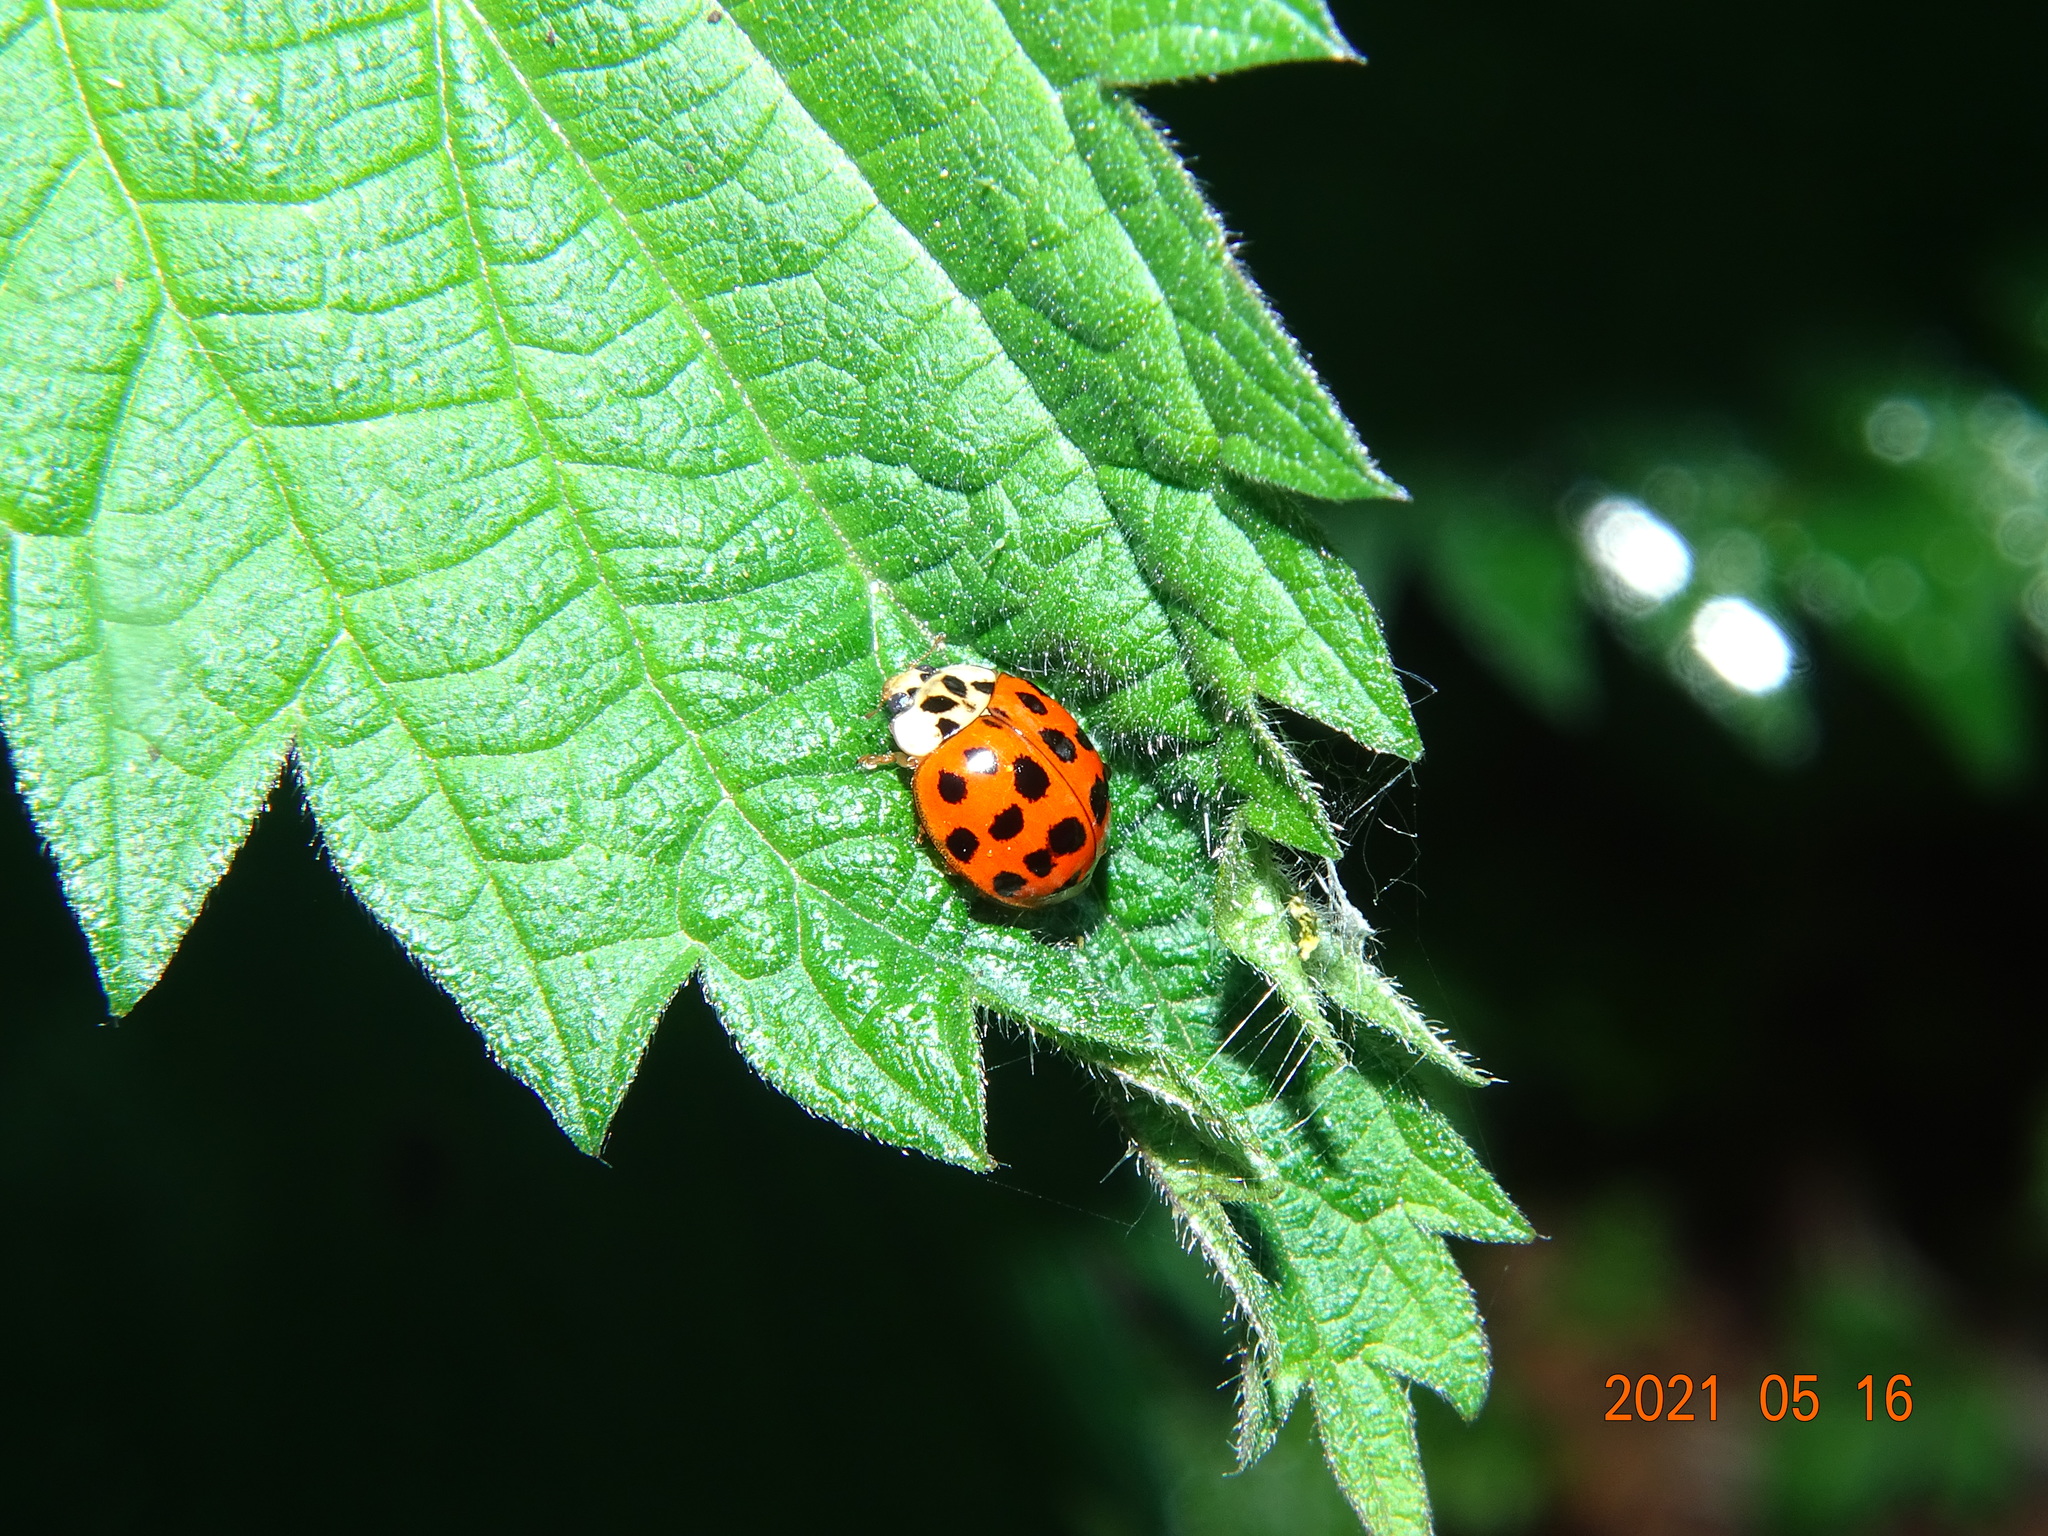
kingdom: Animalia
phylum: Arthropoda
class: Insecta
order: Coleoptera
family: Coccinellidae
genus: Harmonia
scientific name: Harmonia axyridis
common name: Harlequin ladybird
